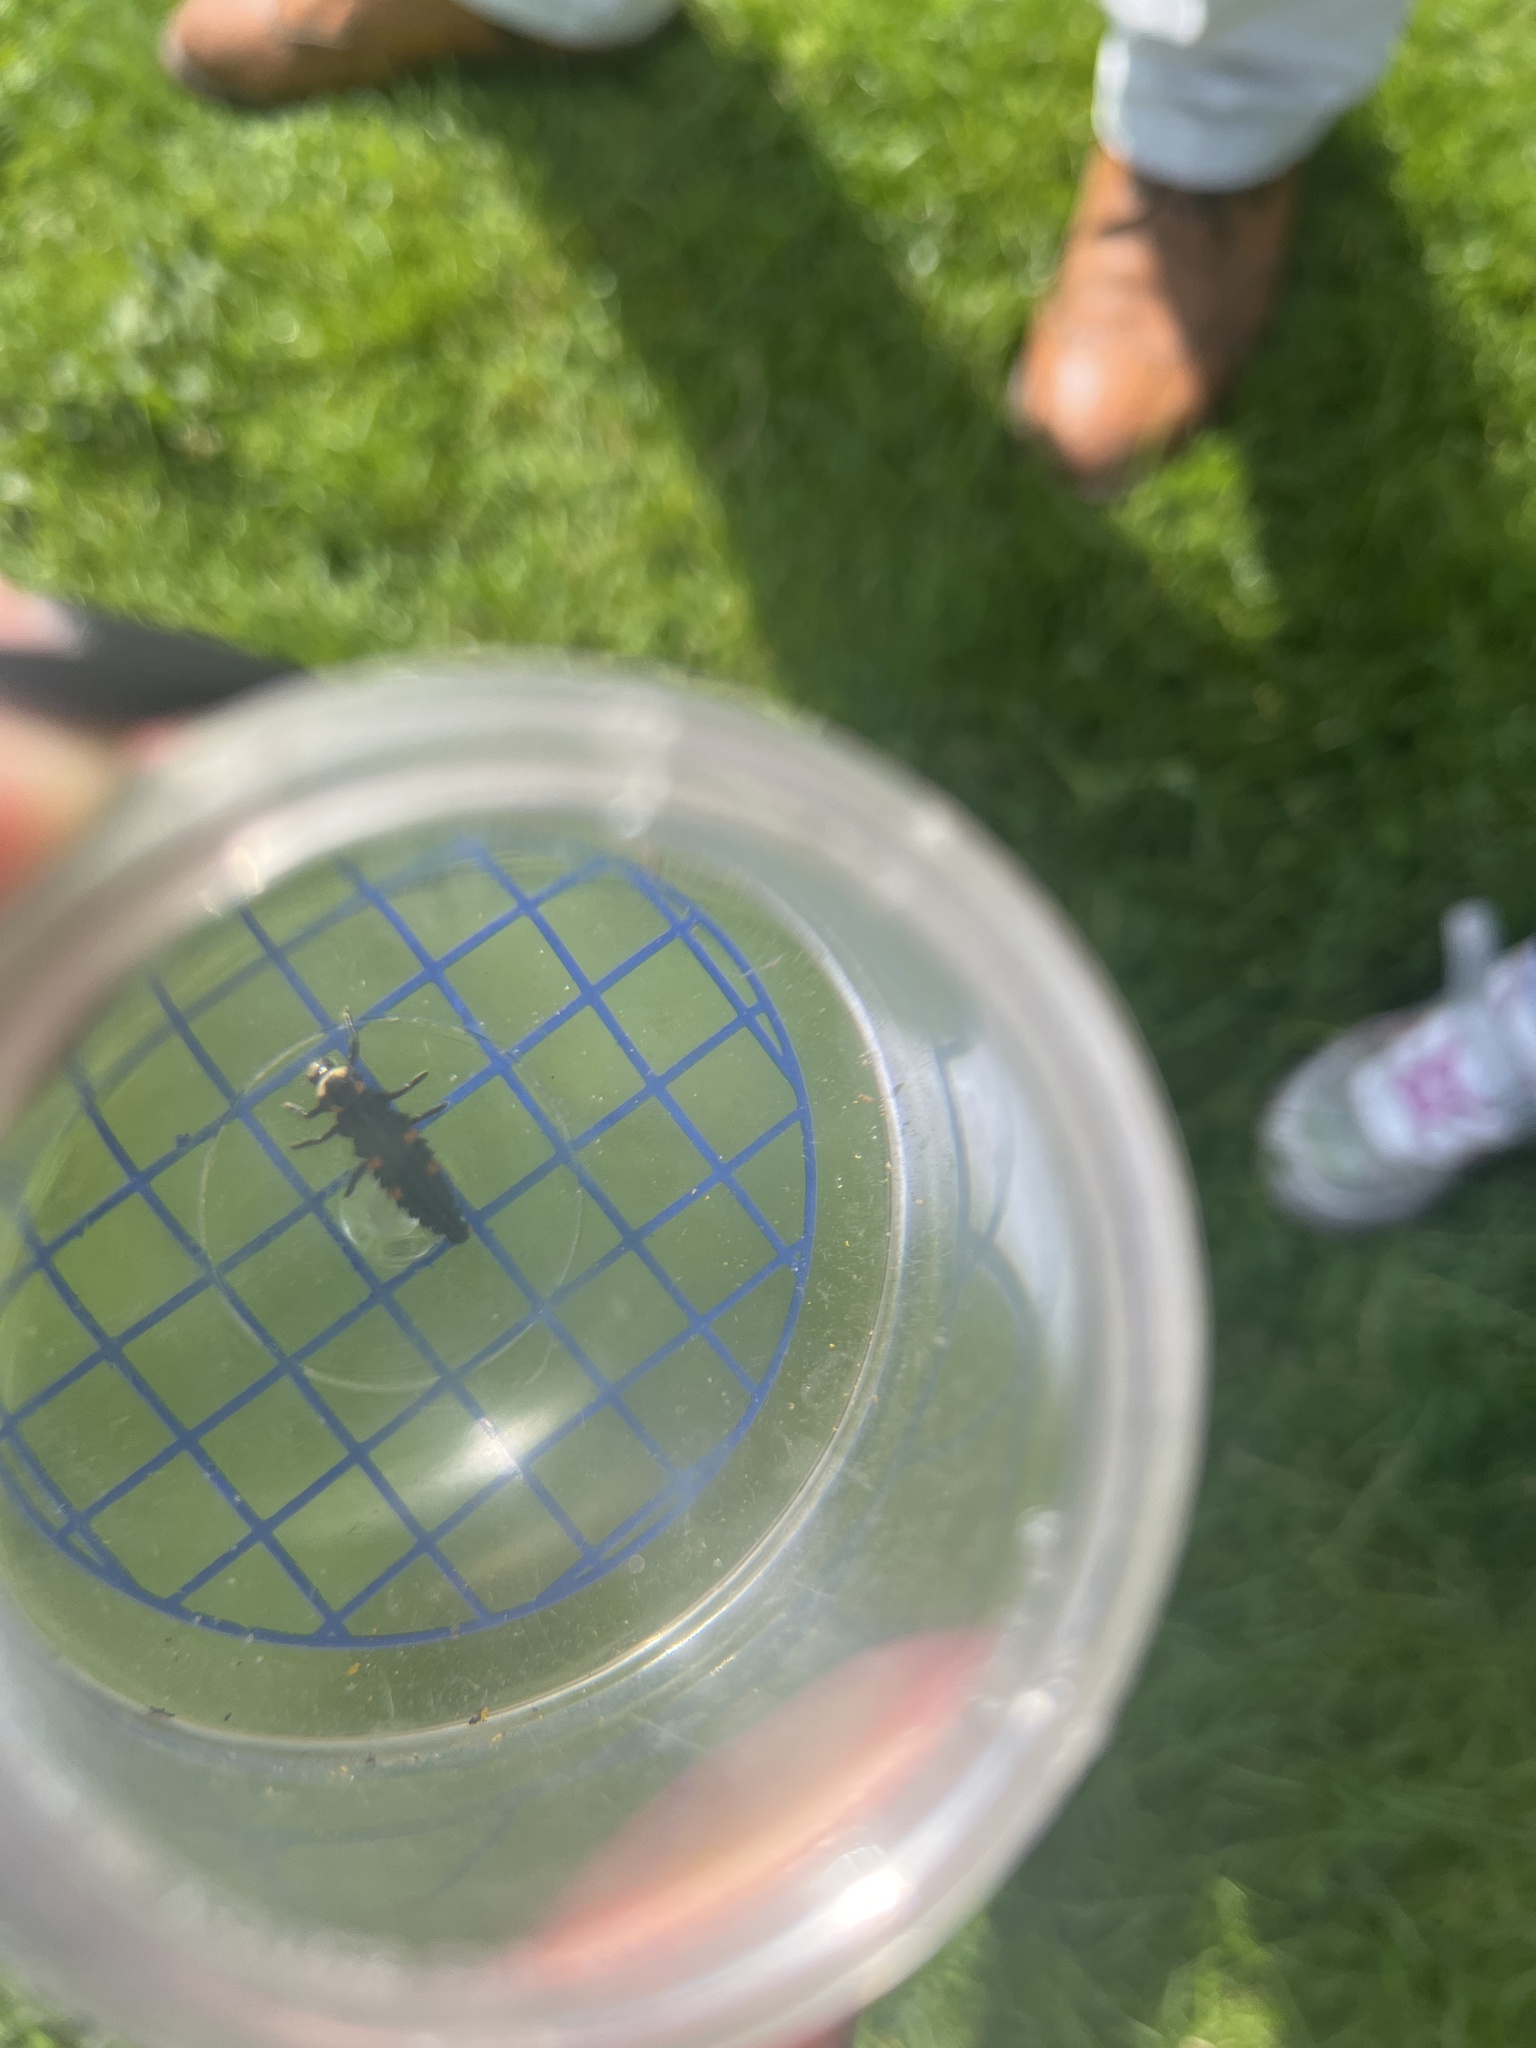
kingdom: Animalia
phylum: Arthropoda
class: Insecta
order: Coleoptera
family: Coccinellidae
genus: Coccinella
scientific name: Coccinella septempunctata
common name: Sevenspotted lady beetle
